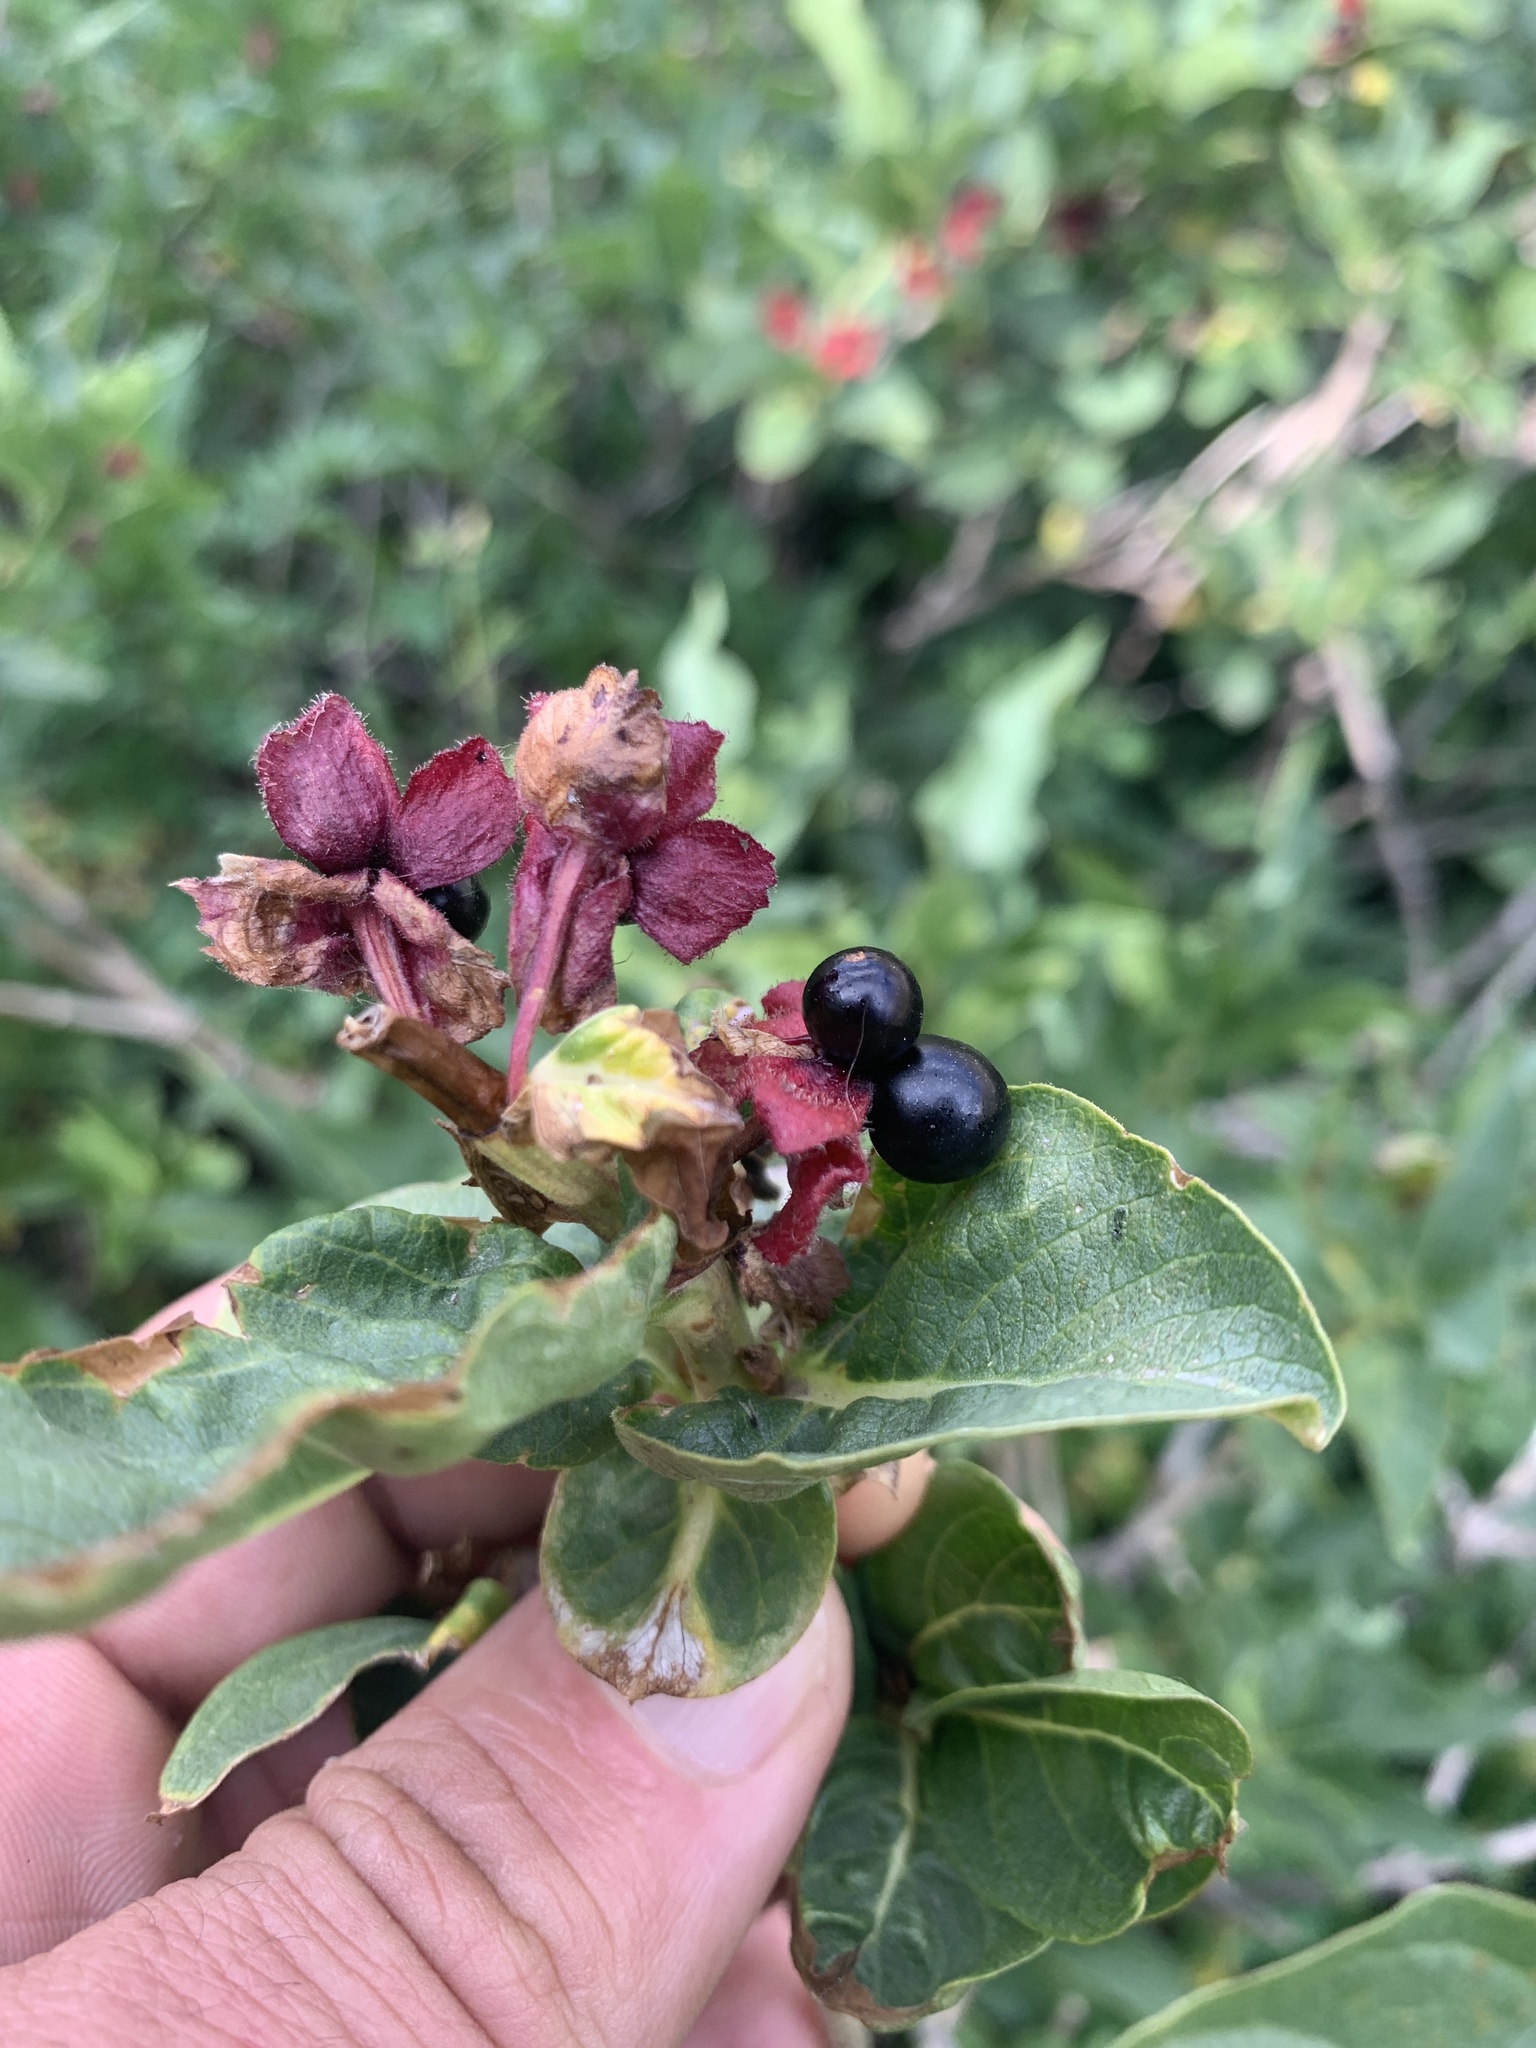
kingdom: Plantae
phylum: Tracheophyta
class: Magnoliopsida
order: Dipsacales
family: Caprifoliaceae
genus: Lonicera
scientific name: Lonicera involucrata
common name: Californian honeysuckle
